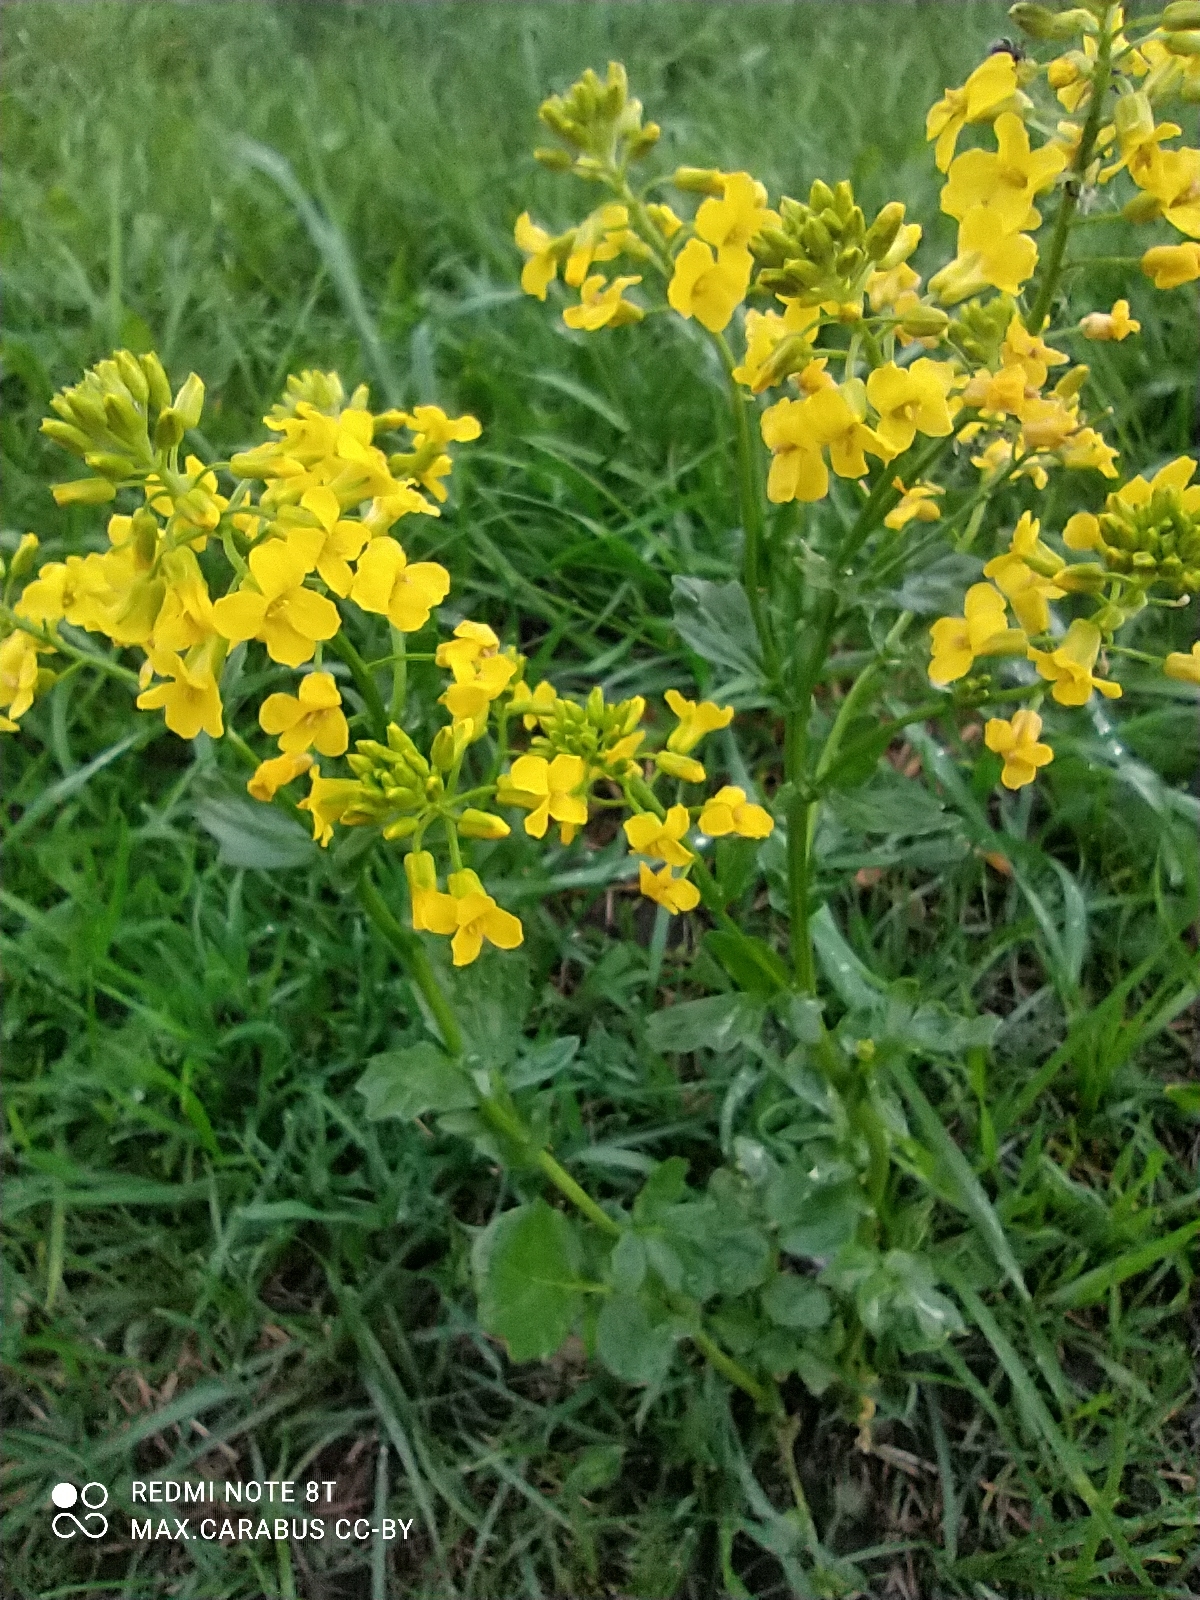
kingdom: Plantae
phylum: Tracheophyta
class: Magnoliopsida
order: Brassicales
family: Brassicaceae
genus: Barbarea
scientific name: Barbarea vulgaris
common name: Cressy-greens
